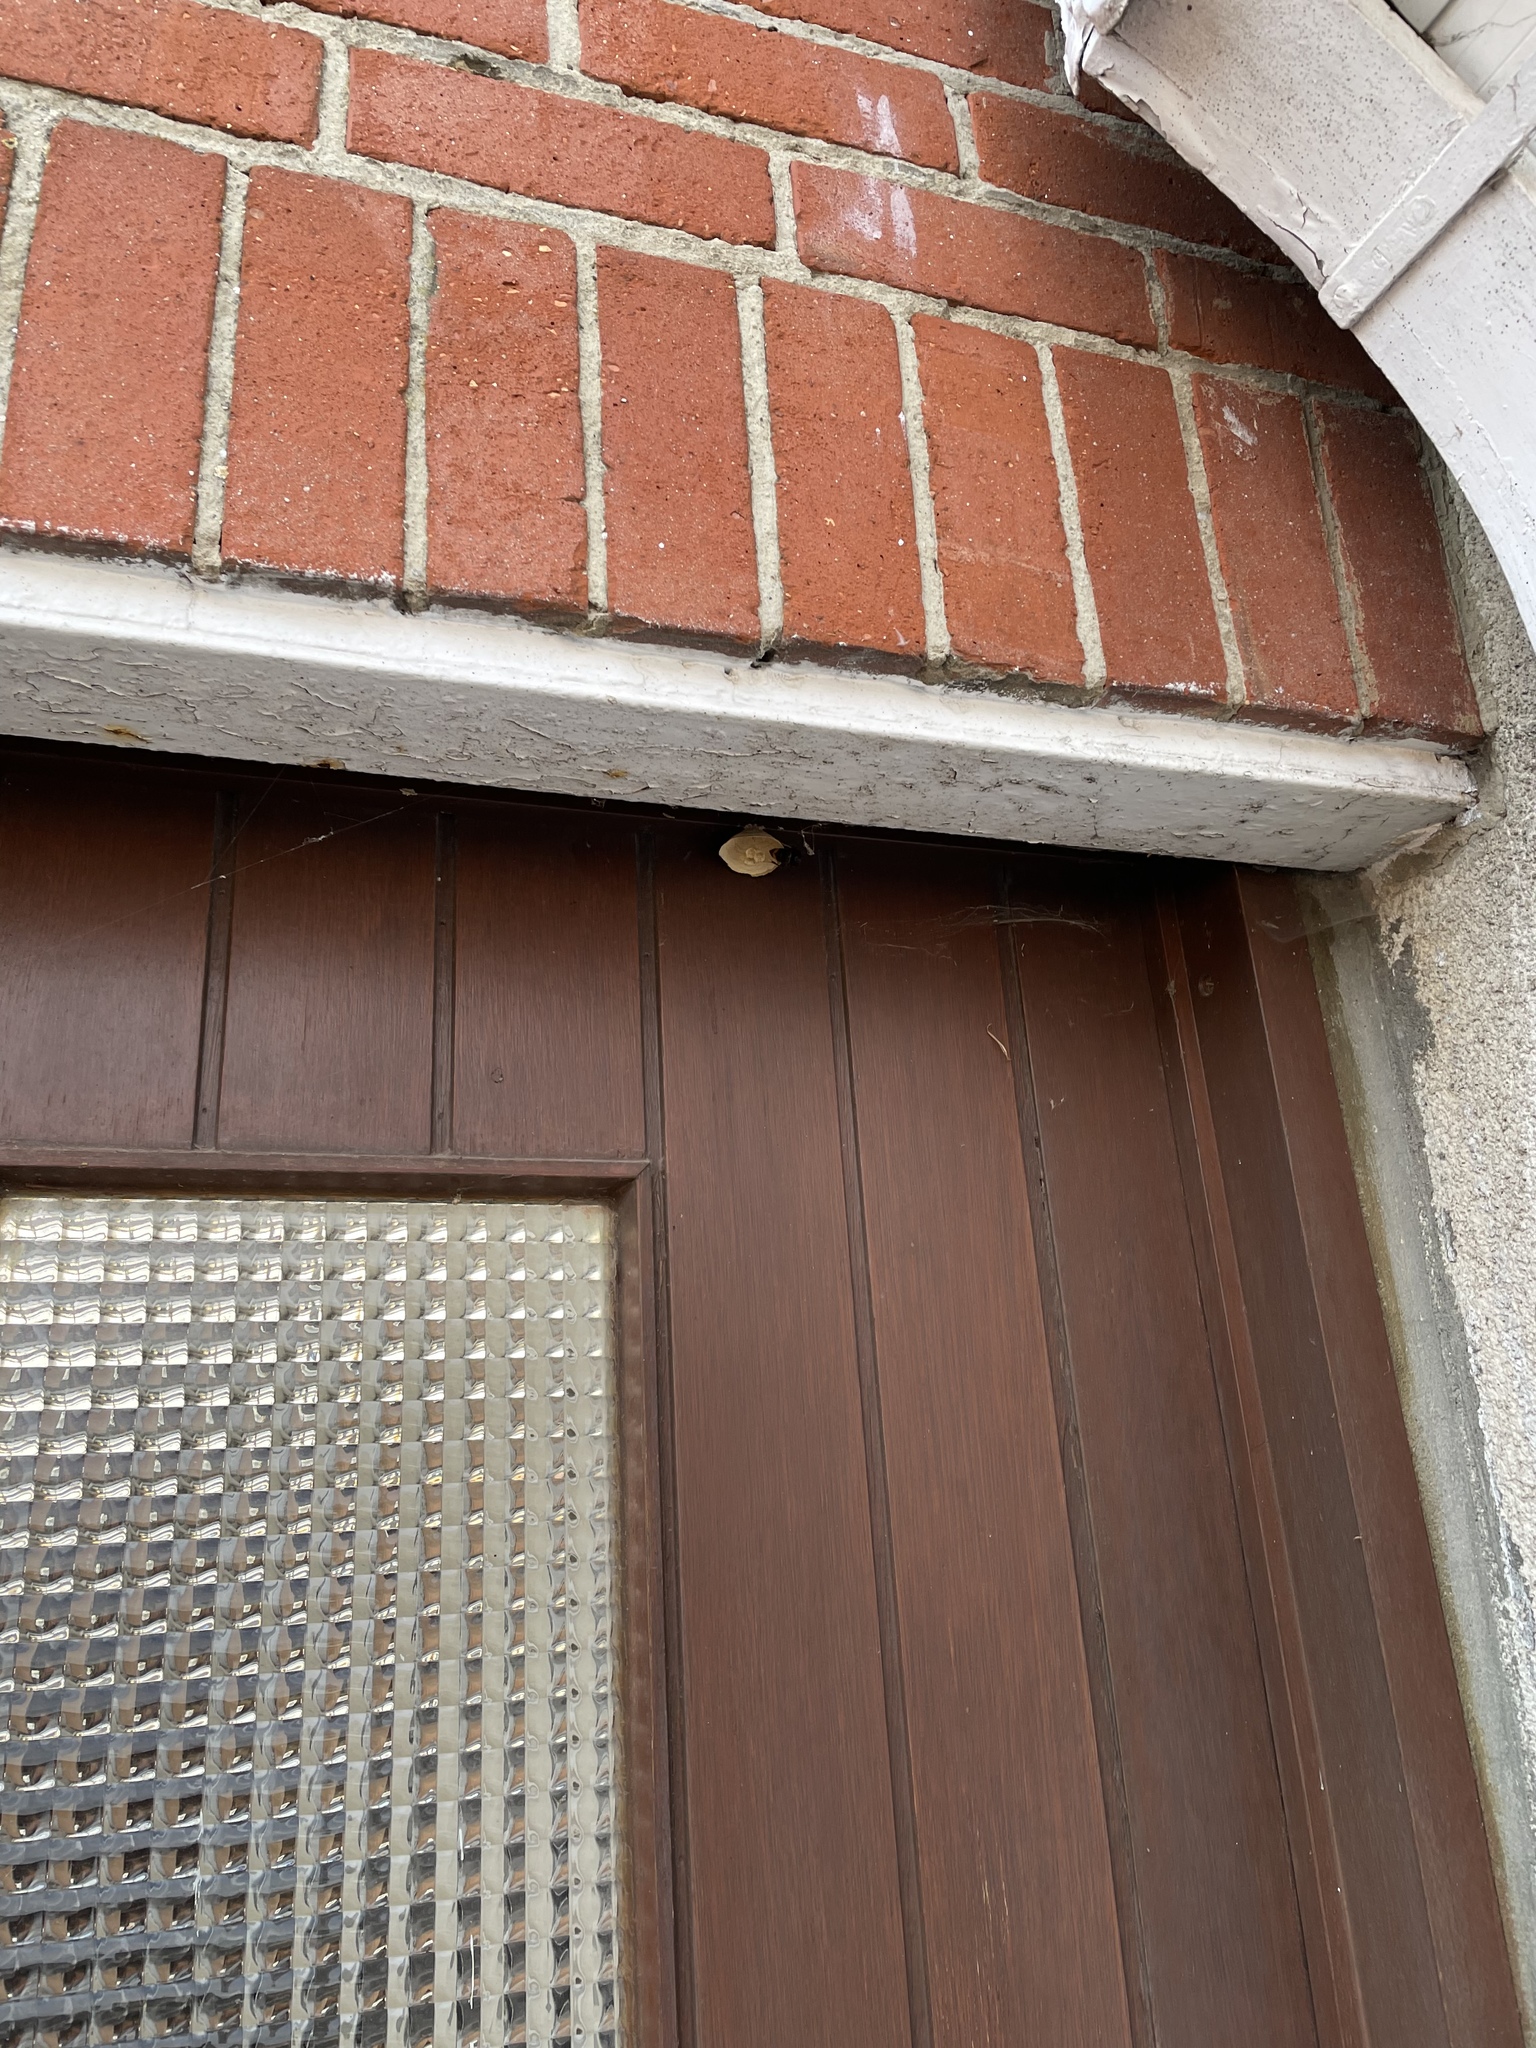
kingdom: Animalia
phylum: Arthropoda
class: Insecta
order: Hymenoptera
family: Vespidae
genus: Vespa
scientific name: Vespa velutina
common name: Asian hornet
